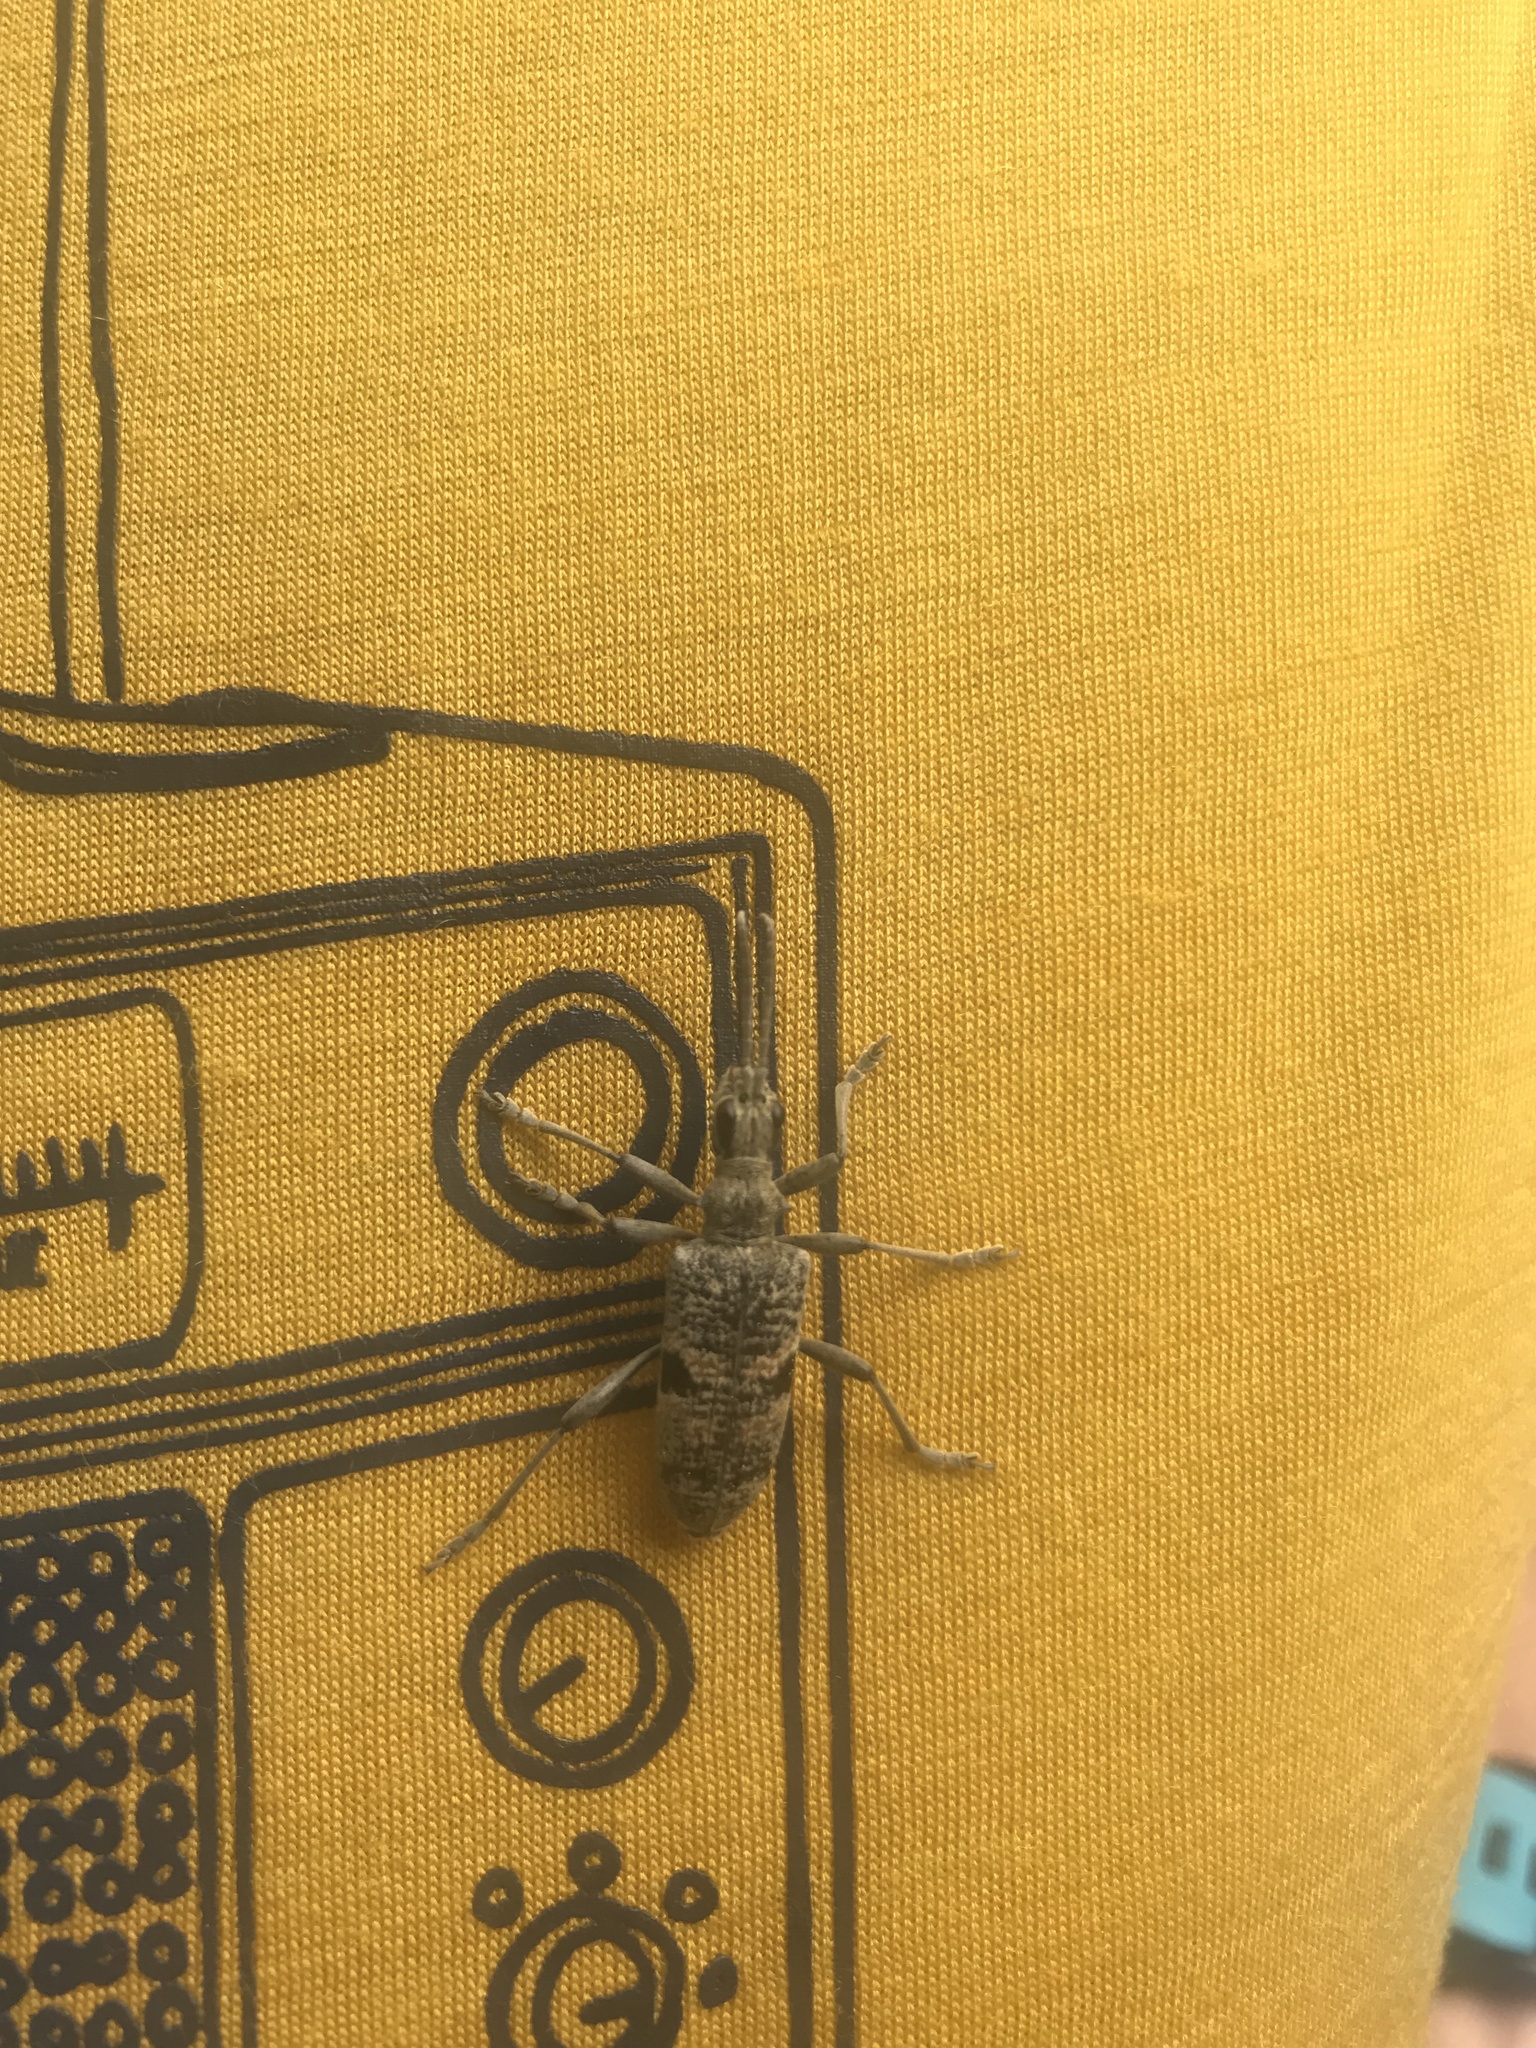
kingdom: Animalia
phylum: Arthropoda
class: Insecta
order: Coleoptera
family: Cerambycidae
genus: Rhagium
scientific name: Rhagium mordax
